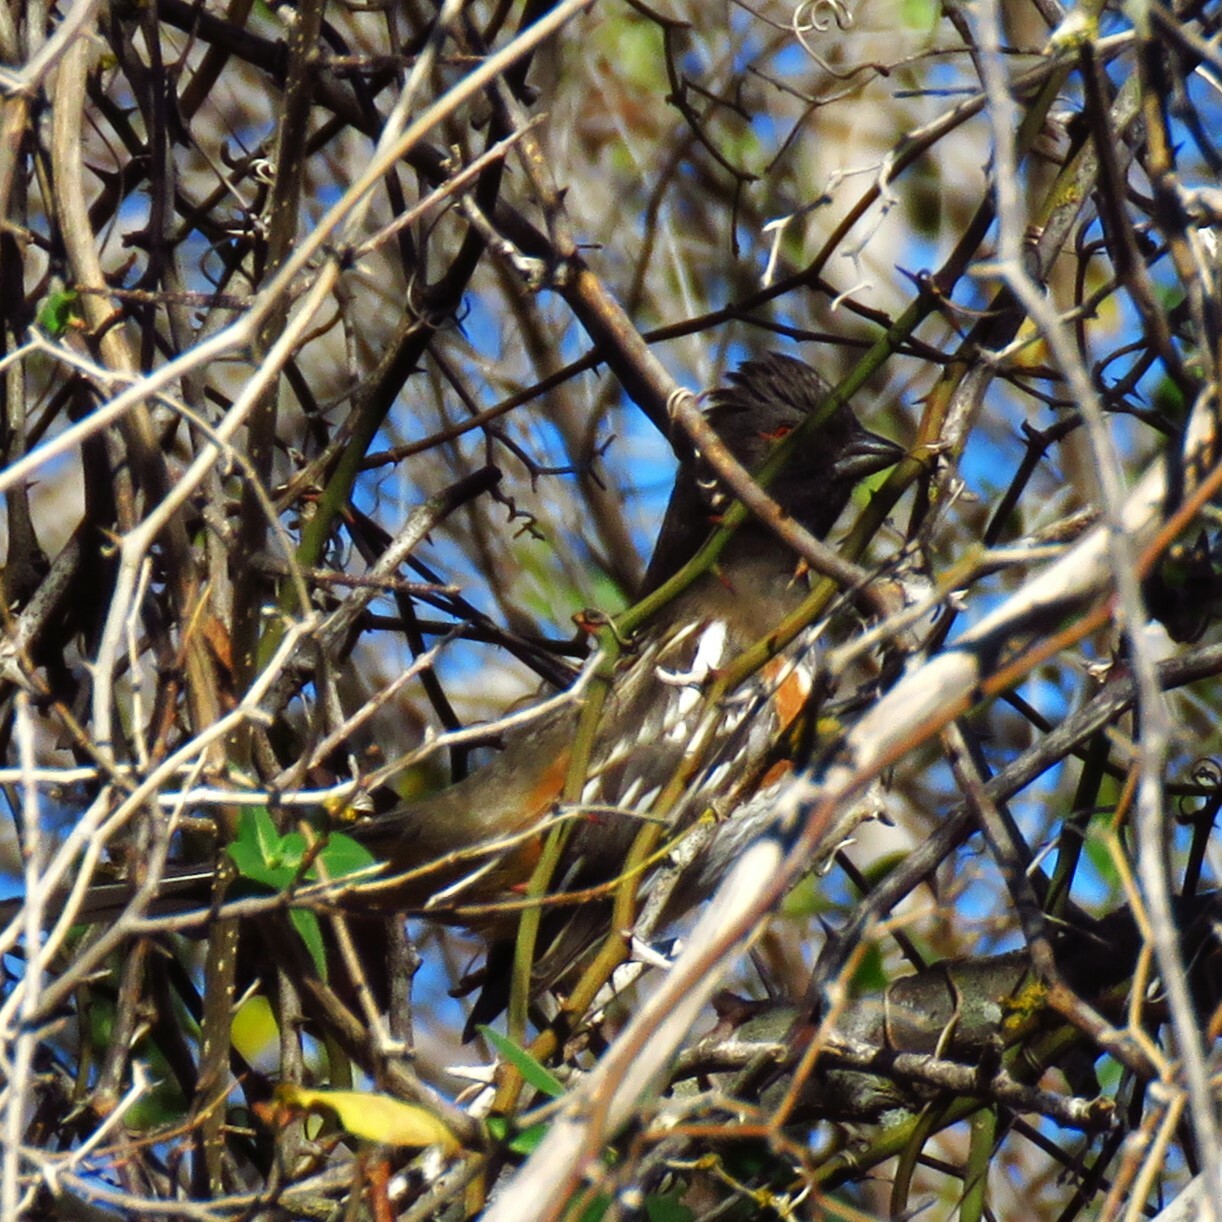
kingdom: Animalia
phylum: Chordata
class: Aves
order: Passeriformes
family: Passerellidae
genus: Pipilo
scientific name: Pipilo maculatus
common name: Spotted towhee
